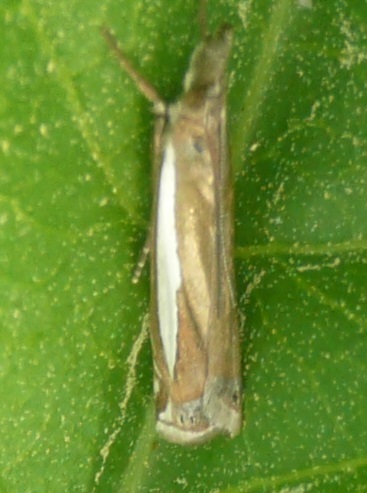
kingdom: Animalia
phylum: Arthropoda
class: Insecta
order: Lepidoptera
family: Crambidae
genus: Crambus
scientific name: Crambus praefectellus
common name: Common grass-veneer
